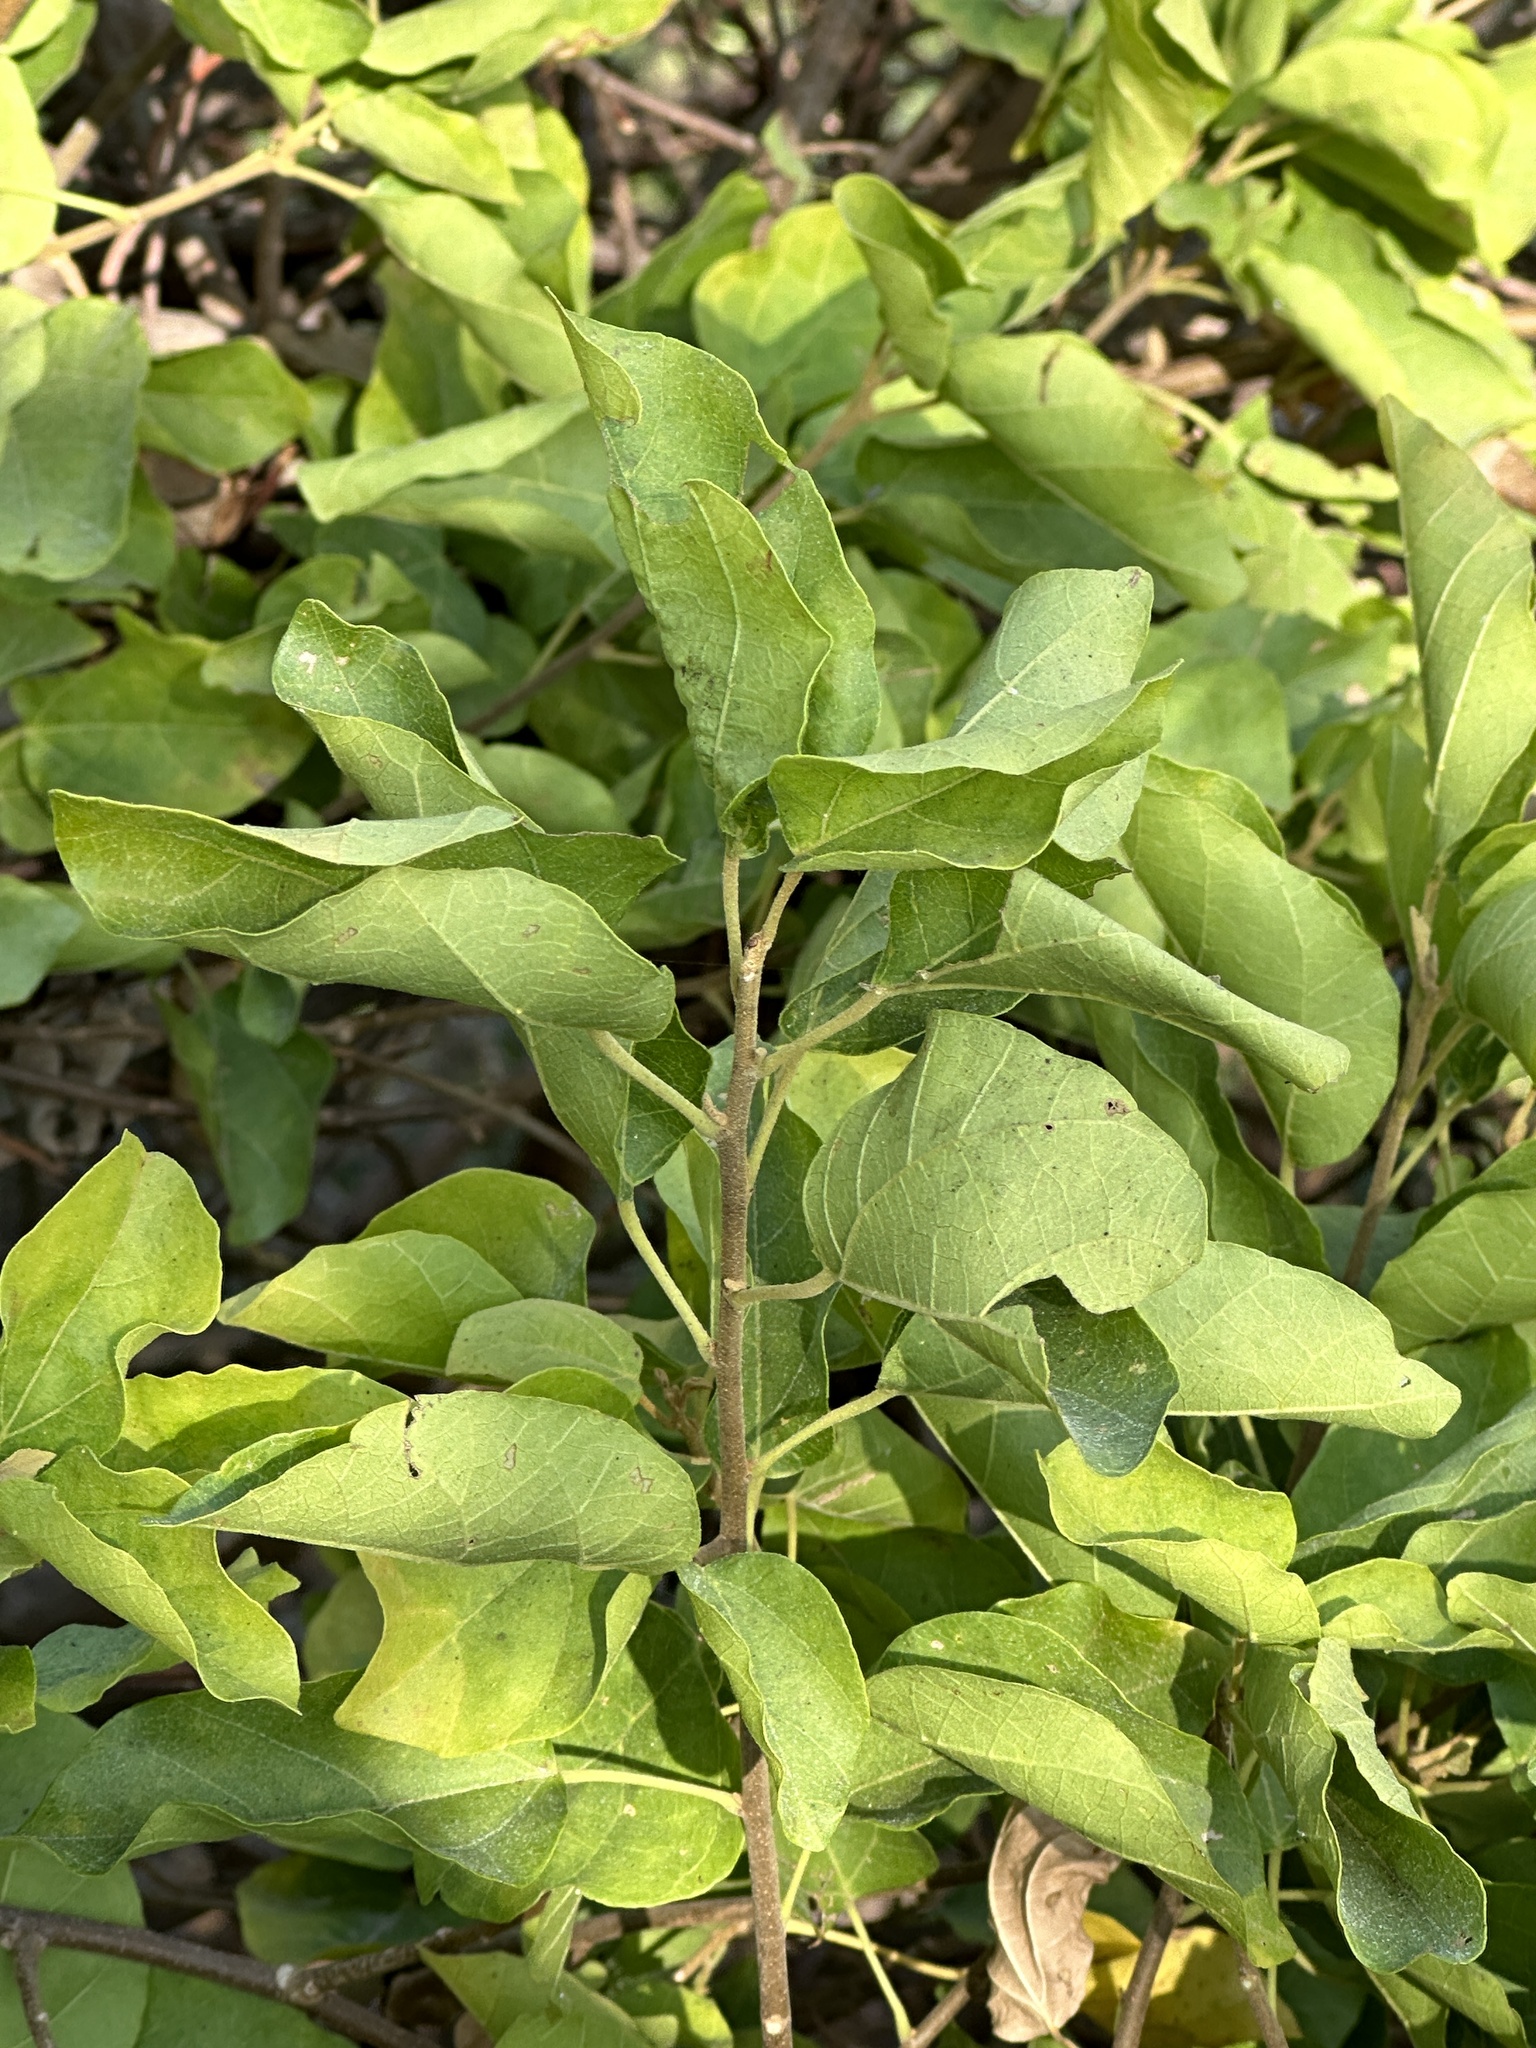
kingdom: Plantae
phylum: Tracheophyta
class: Magnoliopsida
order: Malpighiales
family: Euphorbiaceae
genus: Mallotus
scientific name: Mallotus repandus
